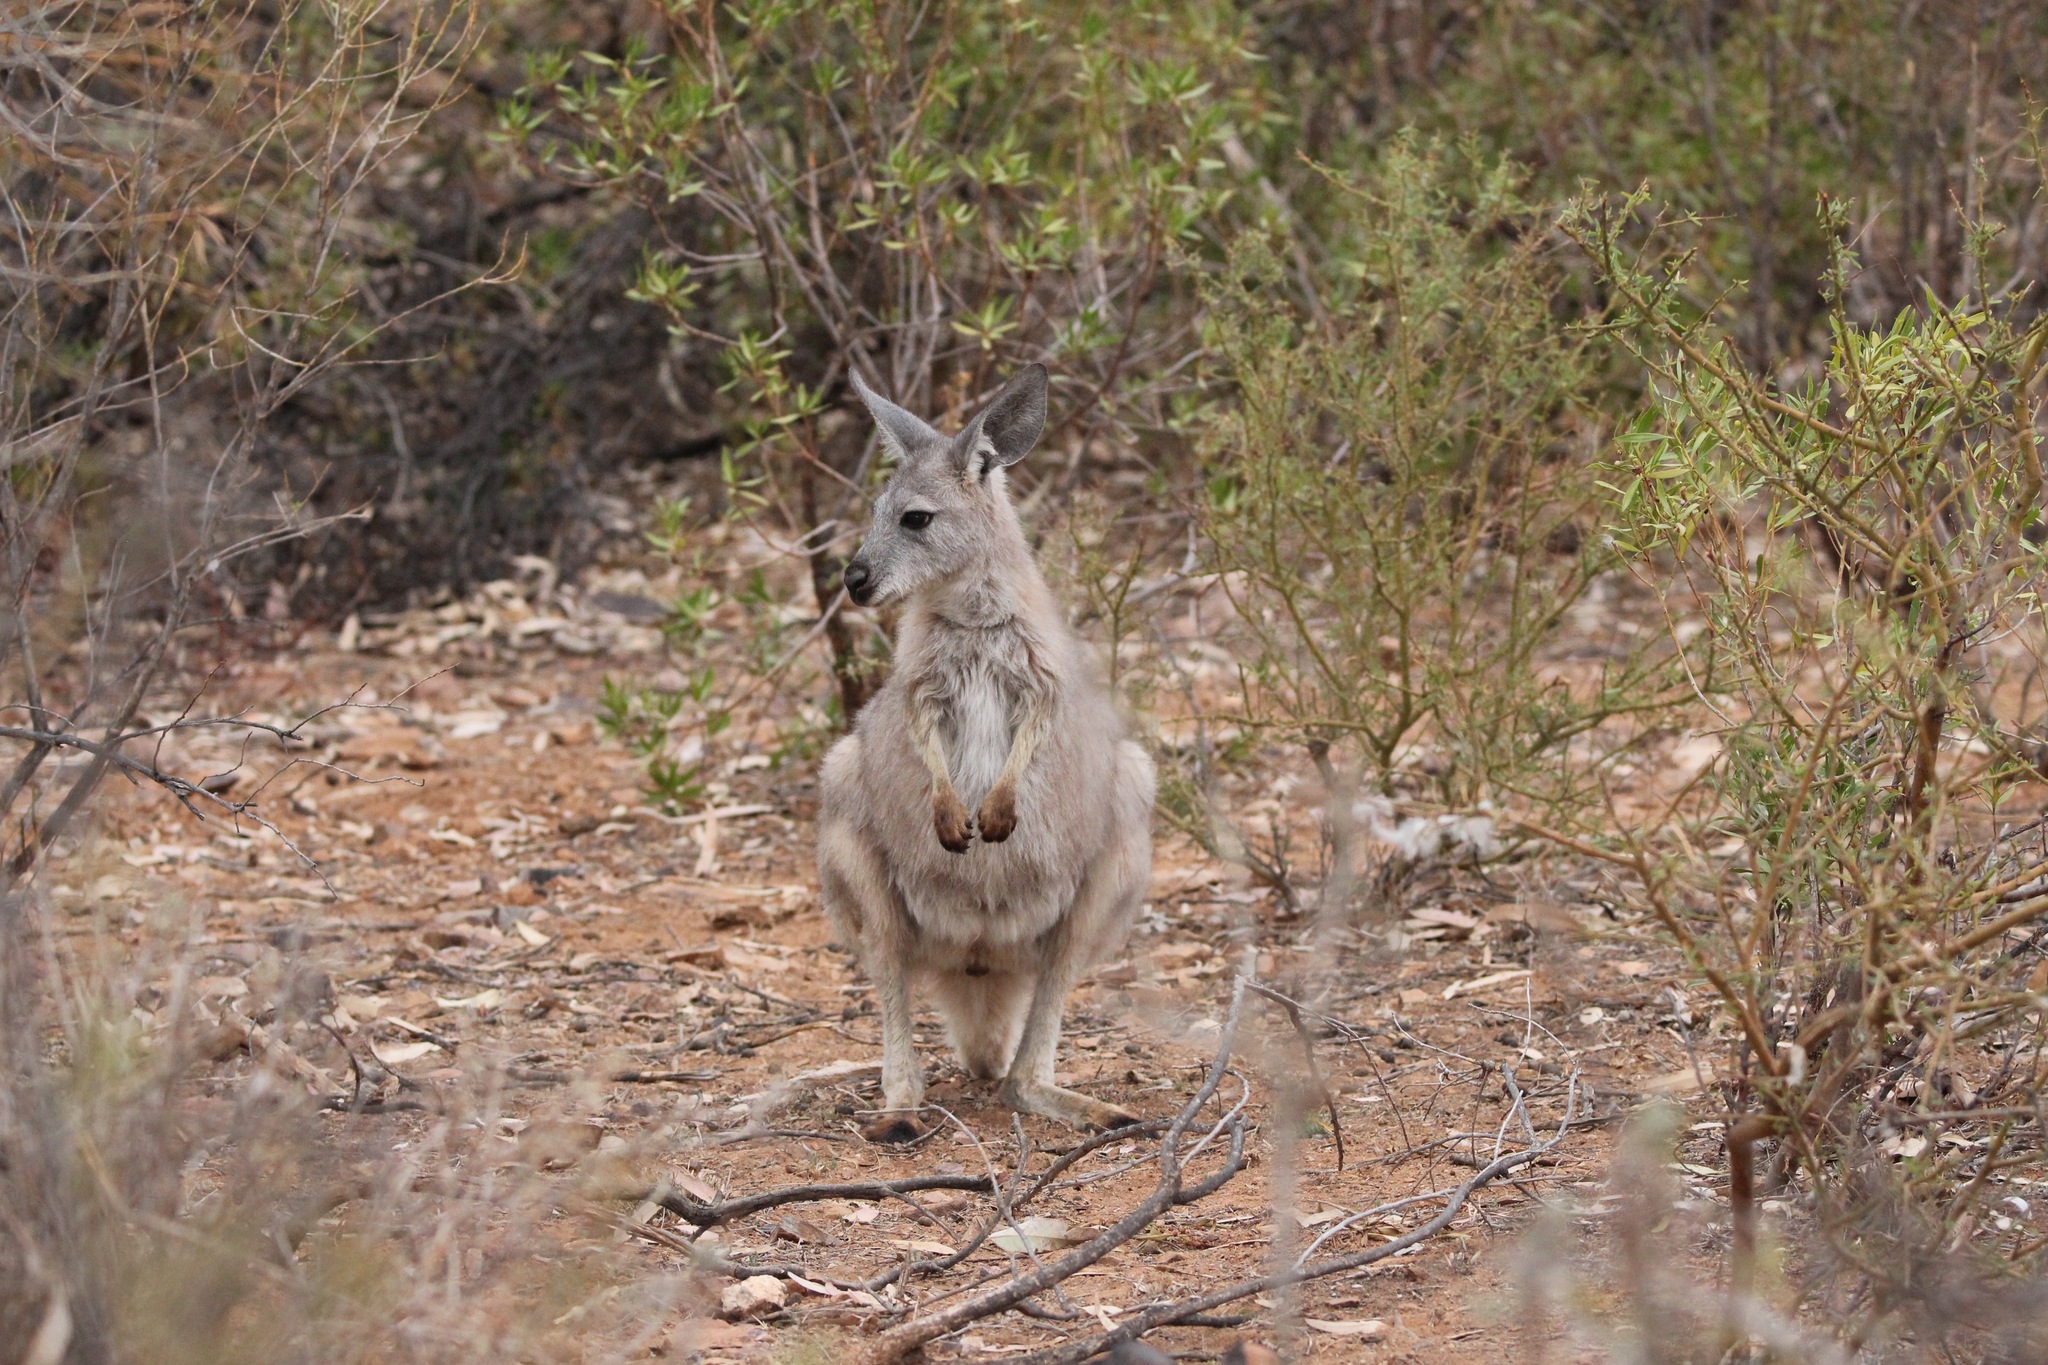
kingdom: Animalia
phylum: Chordata
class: Mammalia
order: Diprotodontia
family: Macropodidae
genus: Macropus
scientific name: Macropus robustus
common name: Eastern wallaroo
